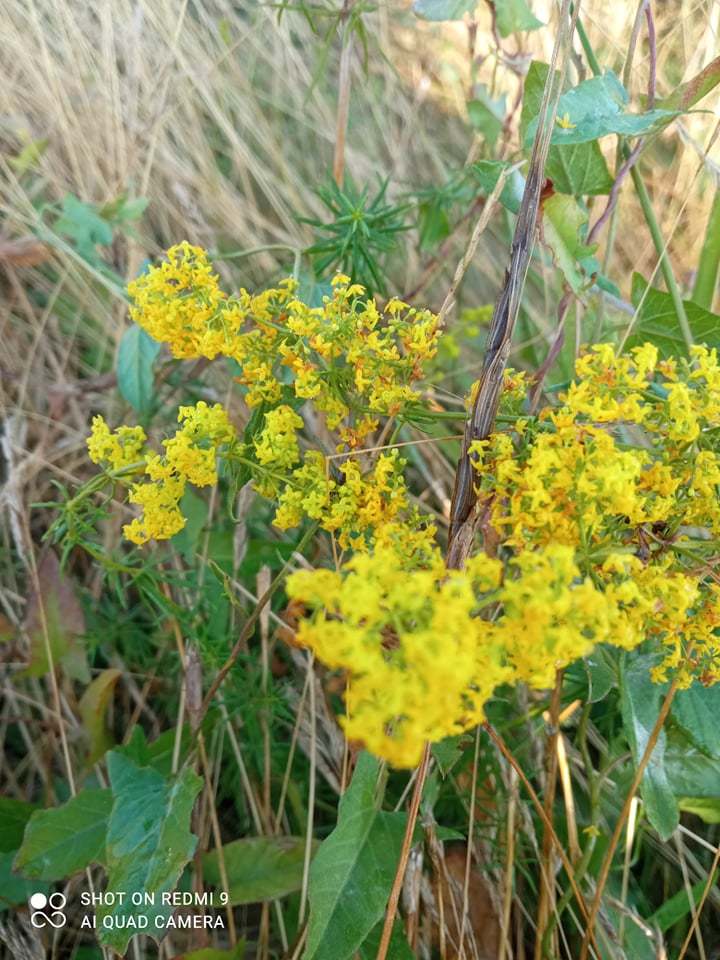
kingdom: Plantae
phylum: Tracheophyta
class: Magnoliopsida
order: Gentianales
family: Rubiaceae
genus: Galium
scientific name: Galium verum
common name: Lady's bedstraw
